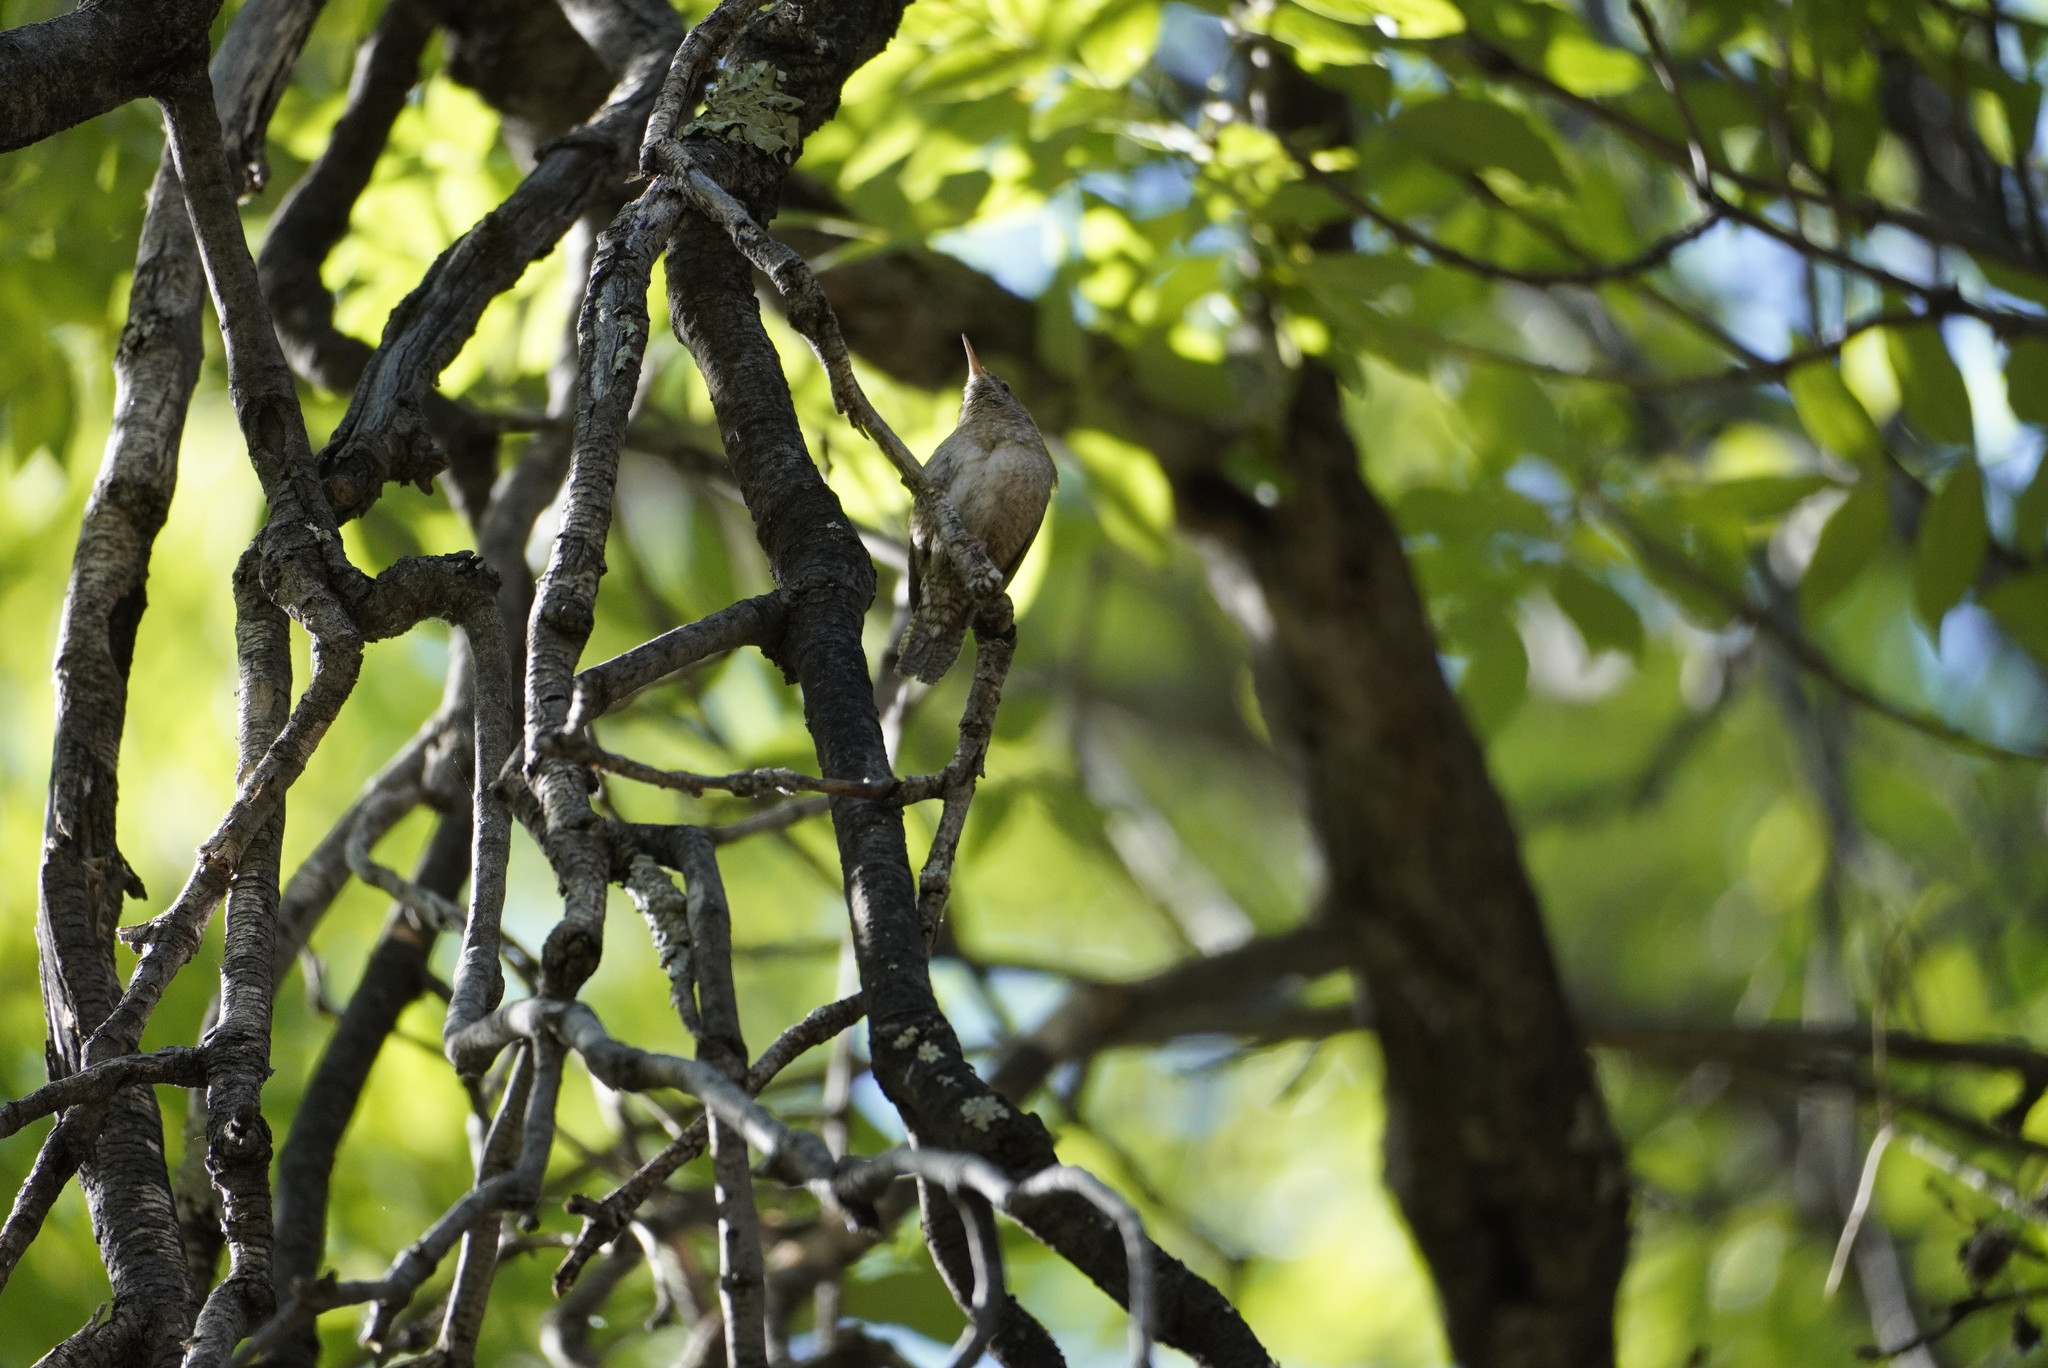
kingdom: Animalia
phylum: Chordata
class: Aves
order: Passeriformes
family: Troglodytidae
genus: Troglodytes
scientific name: Troglodytes aedon
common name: House wren
